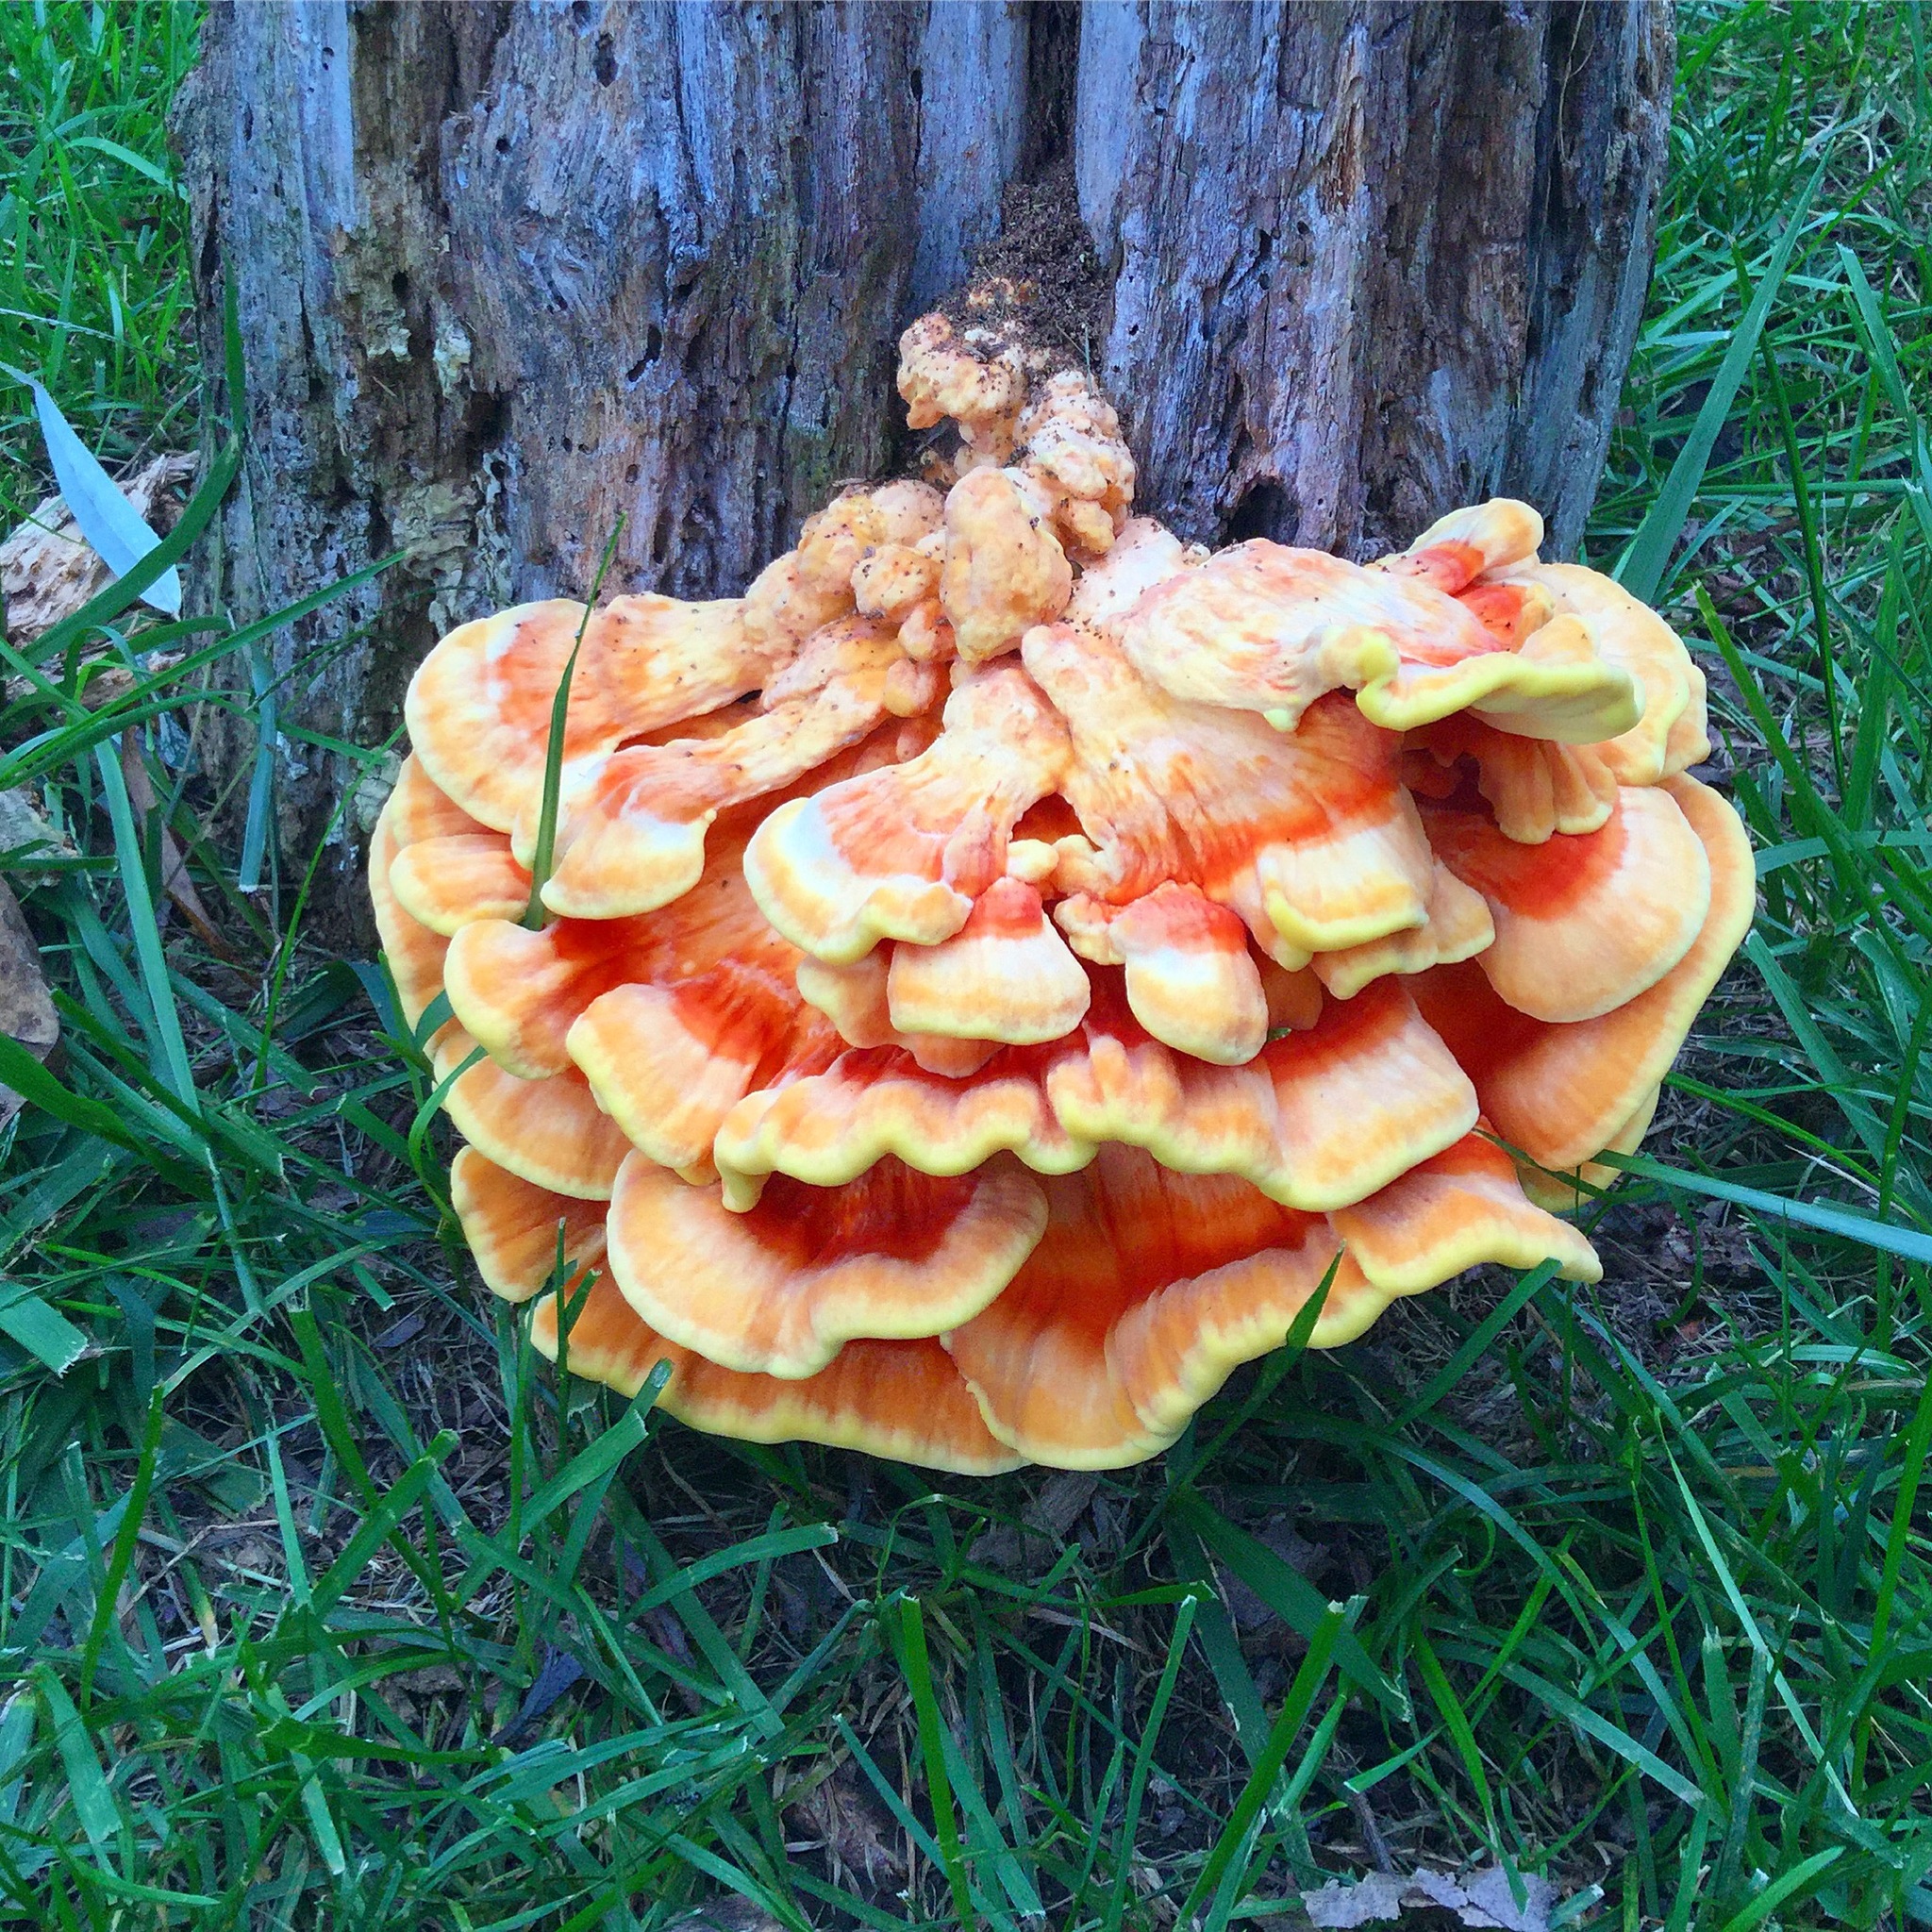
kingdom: Fungi
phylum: Basidiomycota
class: Agaricomycetes
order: Polyporales
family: Laetiporaceae
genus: Laetiporus
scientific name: Laetiporus sulphureus
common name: Chicken of the woods
